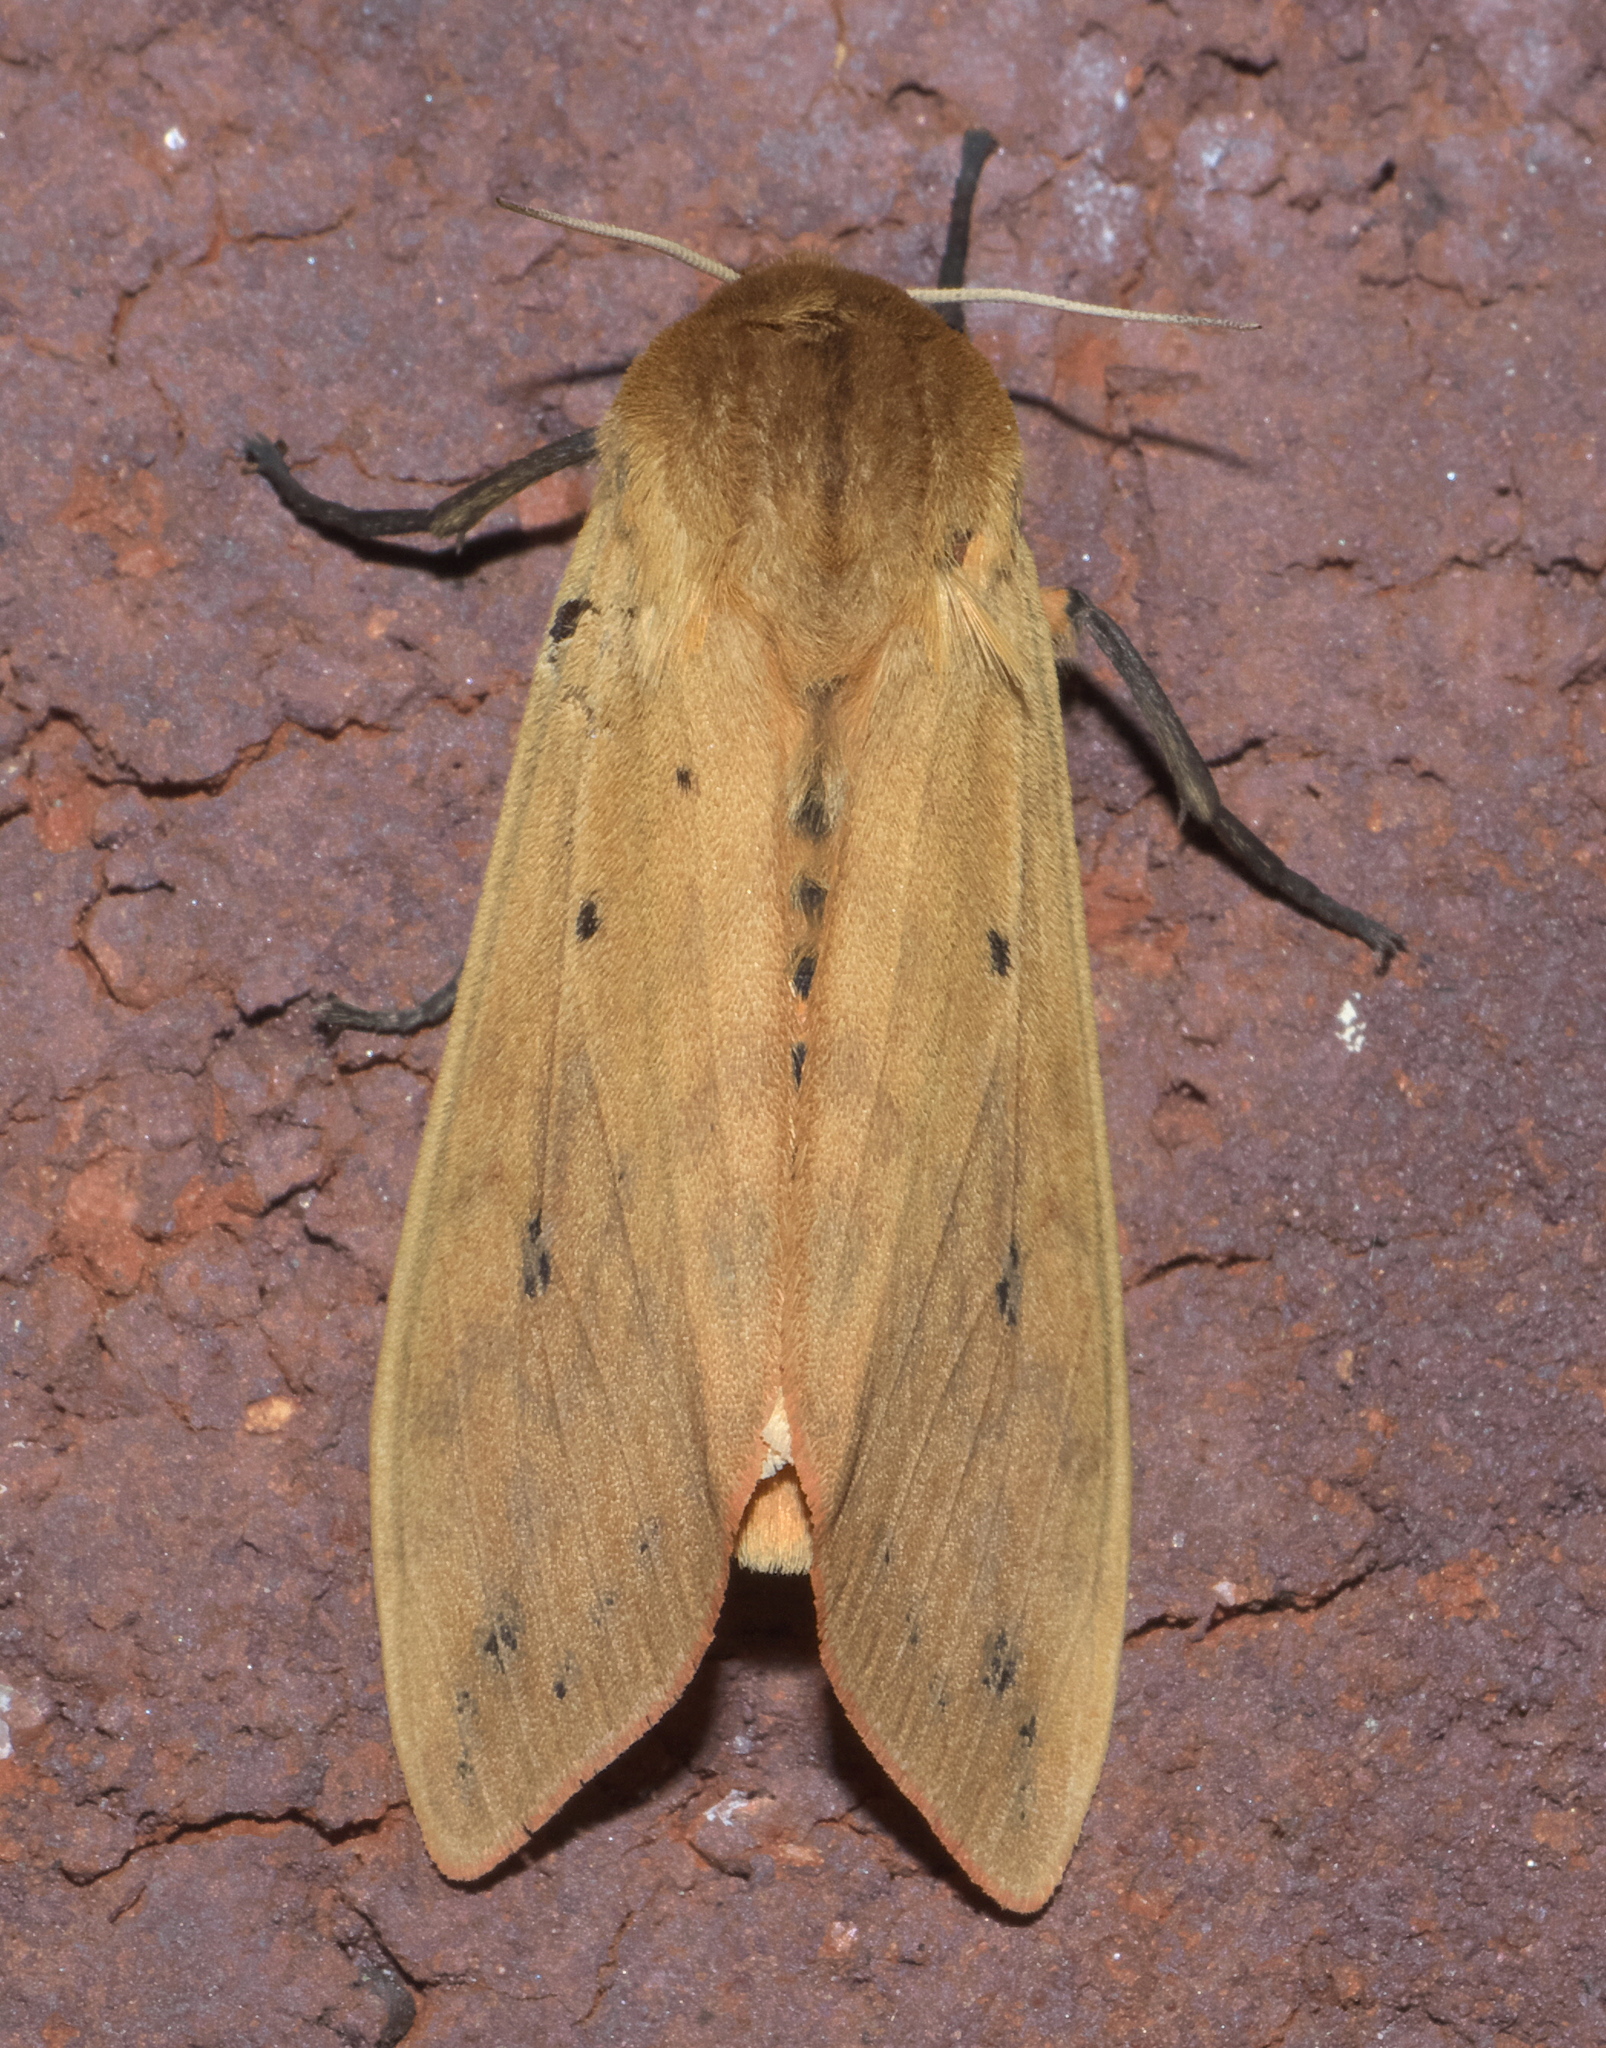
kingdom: Animalia
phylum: Arthropoda
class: Insecta
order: Lepidoptera
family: Erebidae
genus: Pyrrharctia
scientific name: Pyrrharctia isabella
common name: Isabella tiger moth
